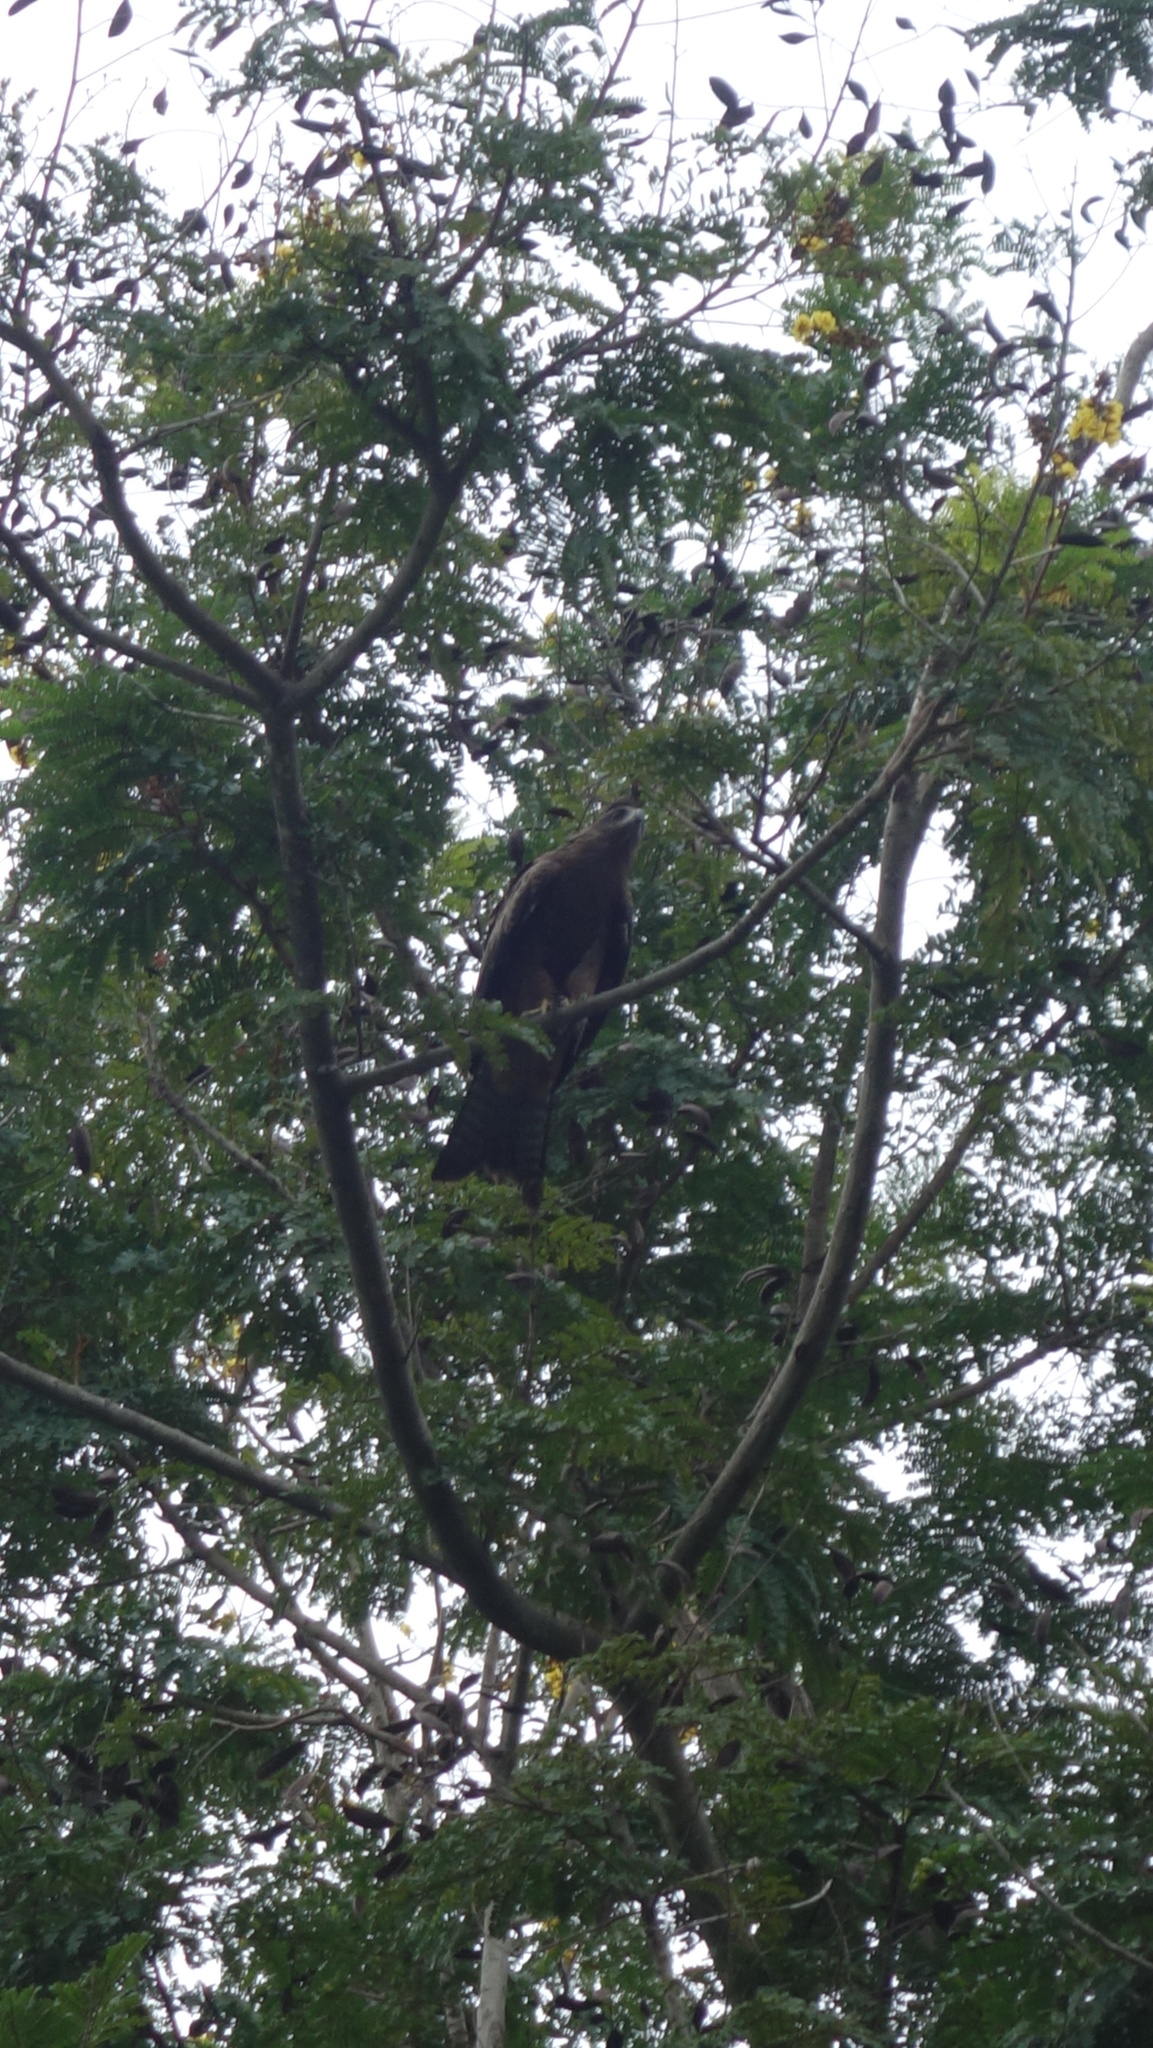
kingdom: Animalia
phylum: Chordata
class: Aves
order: Accipitriformes
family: Accipitridae
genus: Milvus
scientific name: Milvus migrans
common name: Black kite
